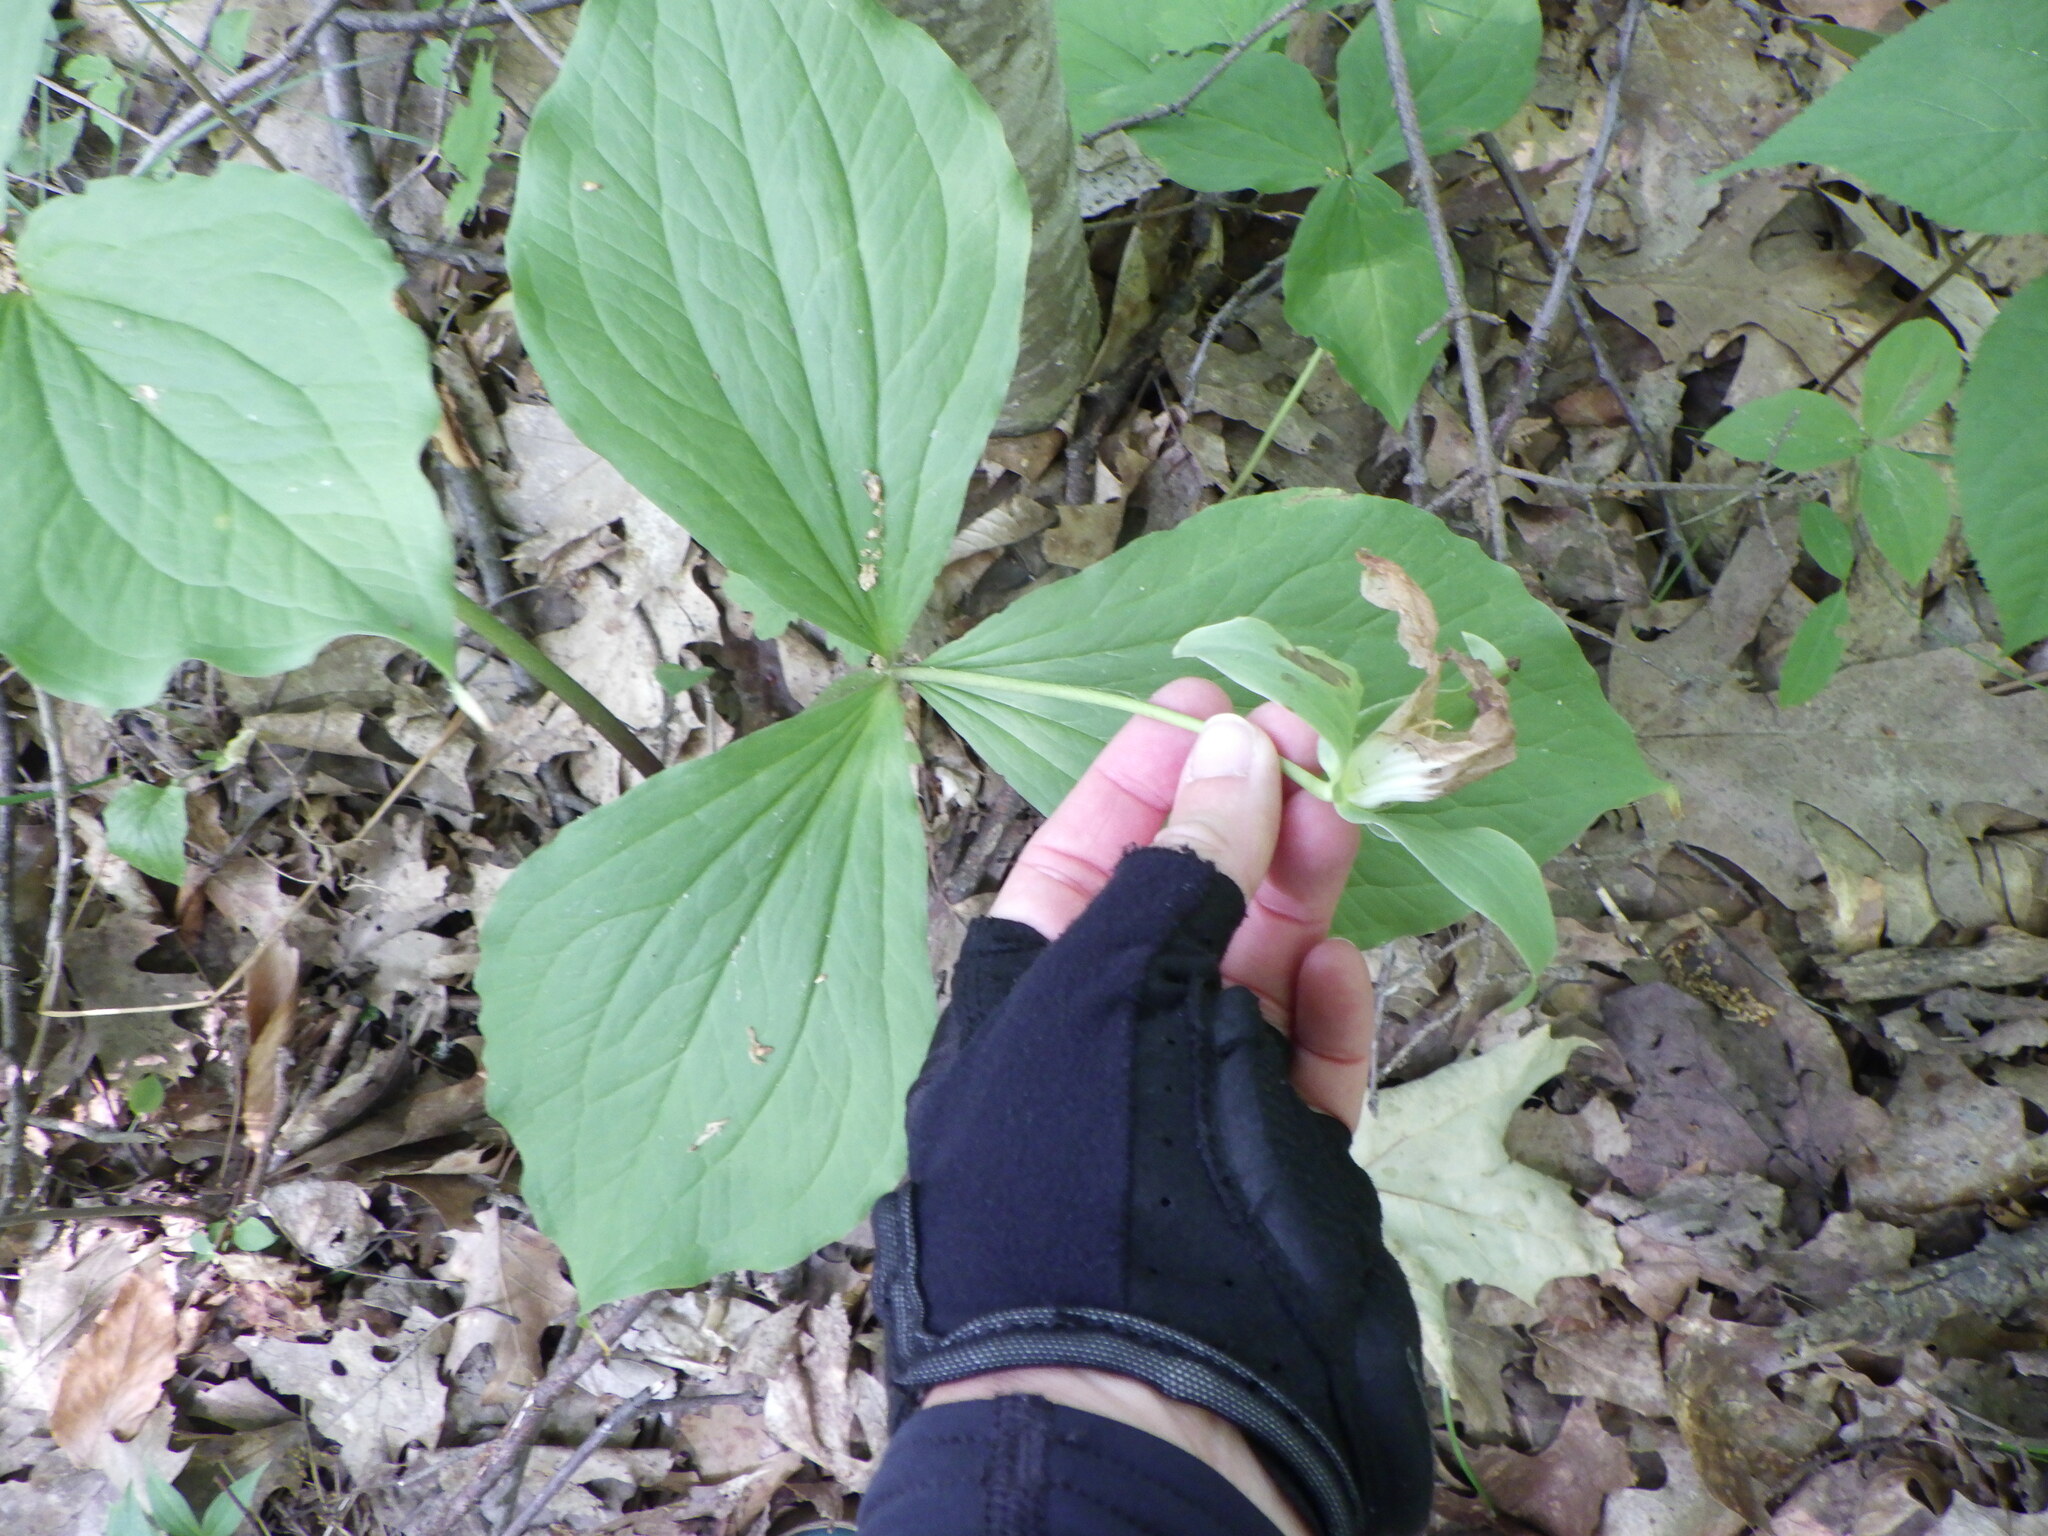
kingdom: Plantae
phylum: Tracheophyta
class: Liliopsida
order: Liliales
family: Melanthiaceae
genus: Trillium
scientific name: Trillium grandiflorum
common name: Great white trillium
